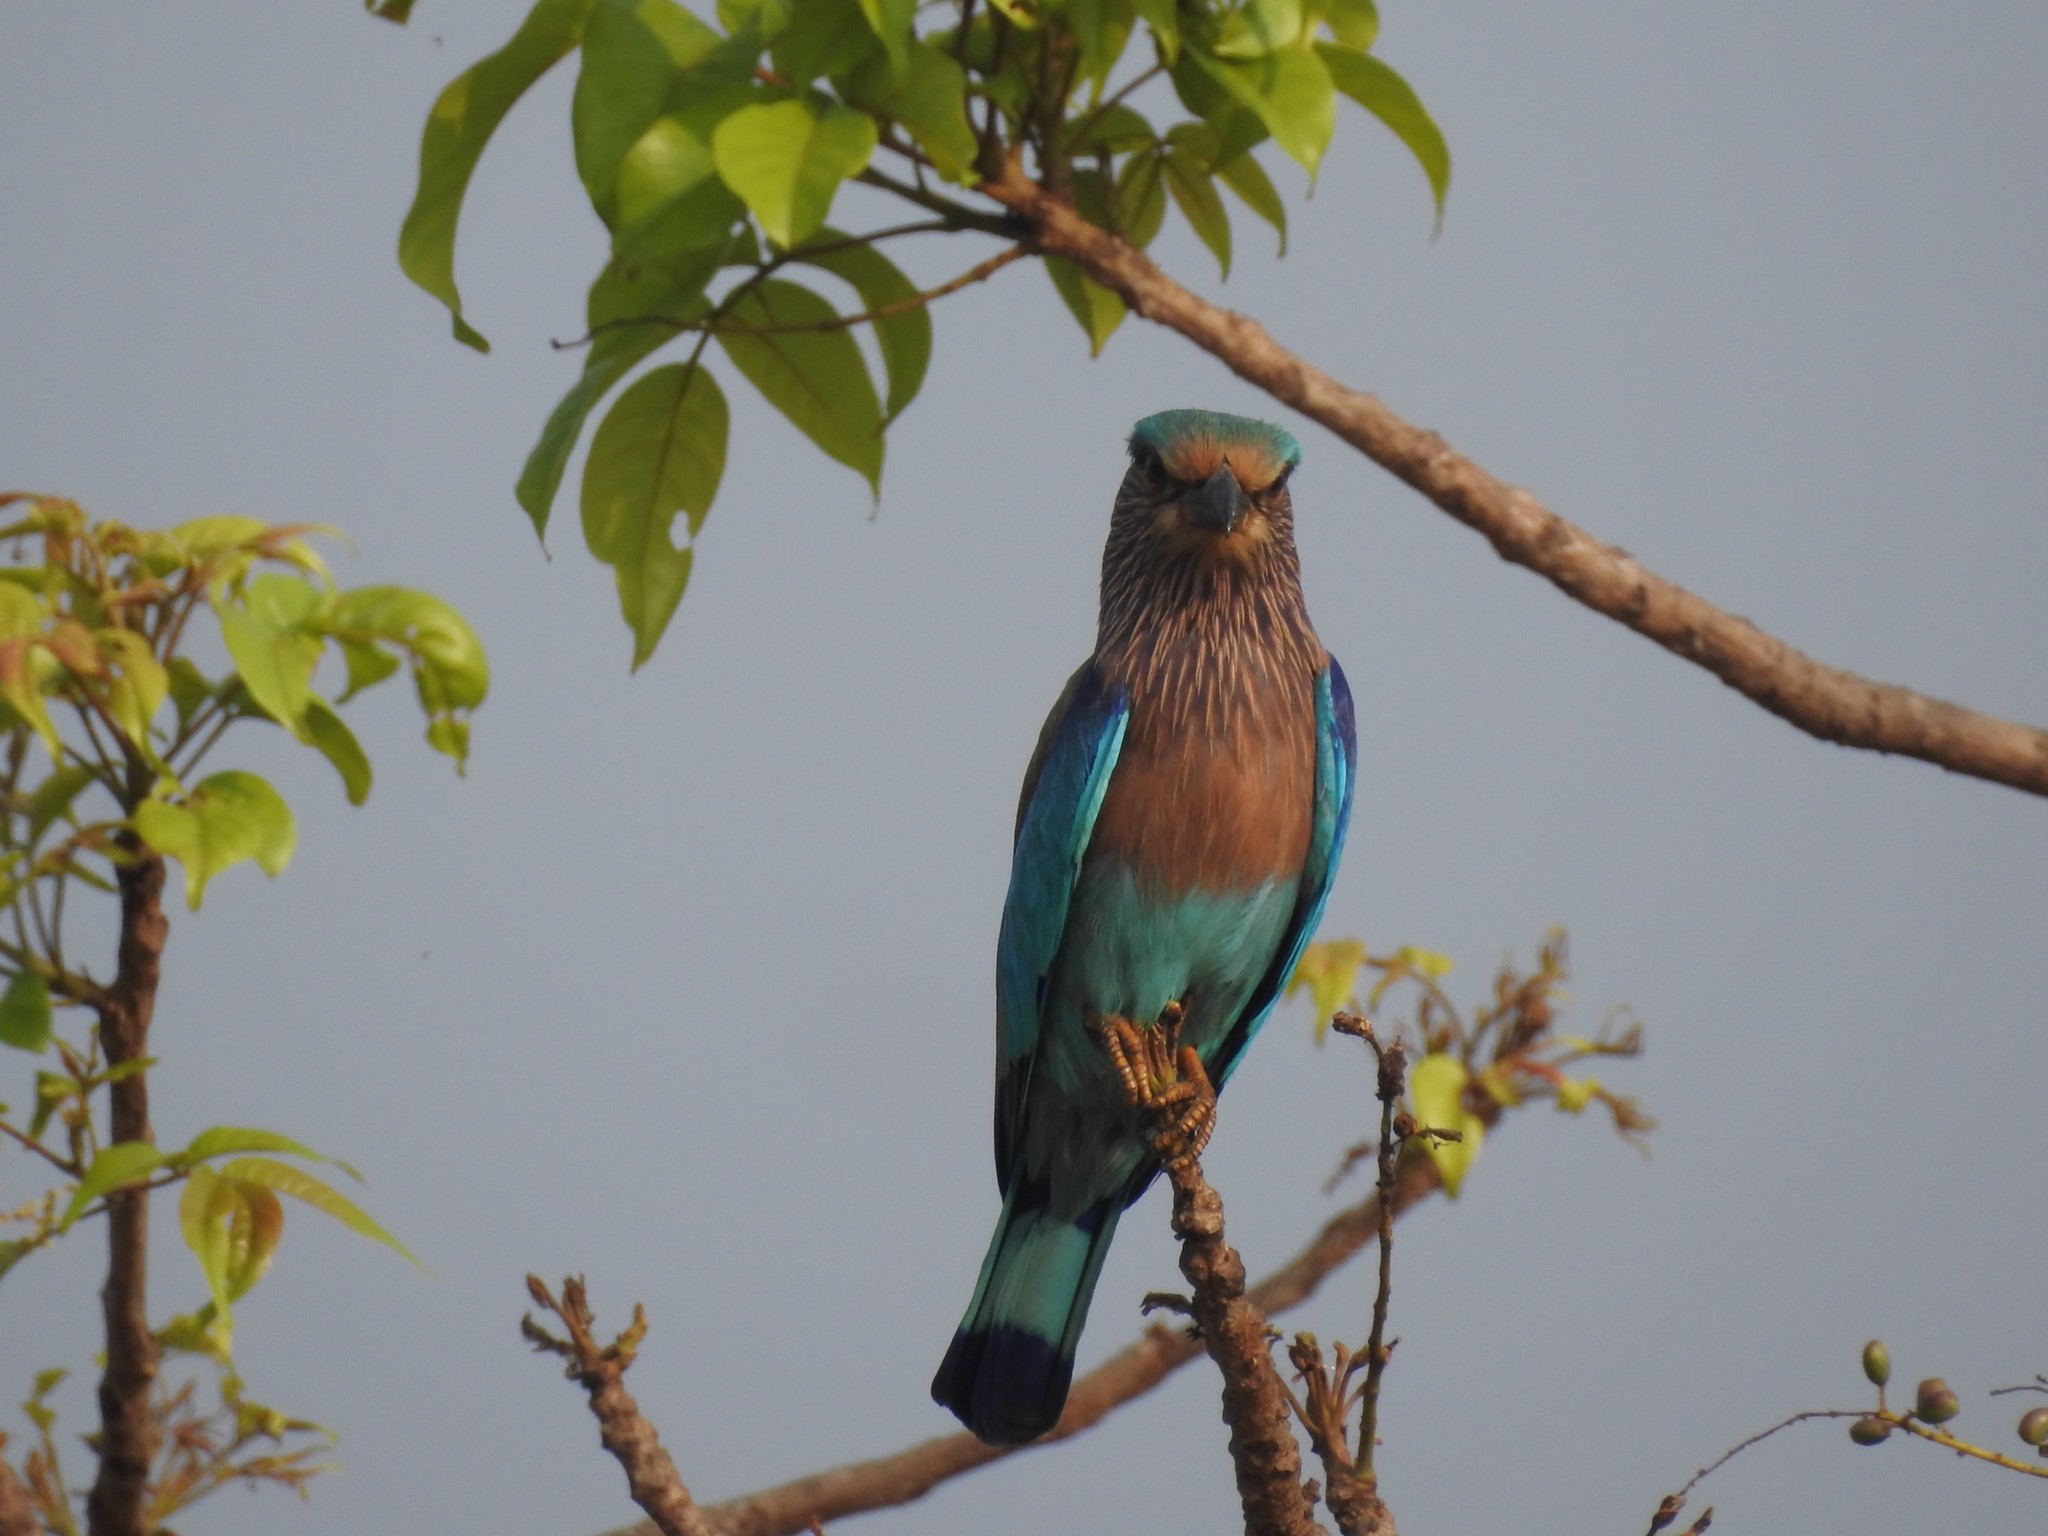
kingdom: Animalia
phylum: Chordata
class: Aves
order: Coraciiformes
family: Coraciidae
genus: Coracias
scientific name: Coracias benghalensis
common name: Indian roller
